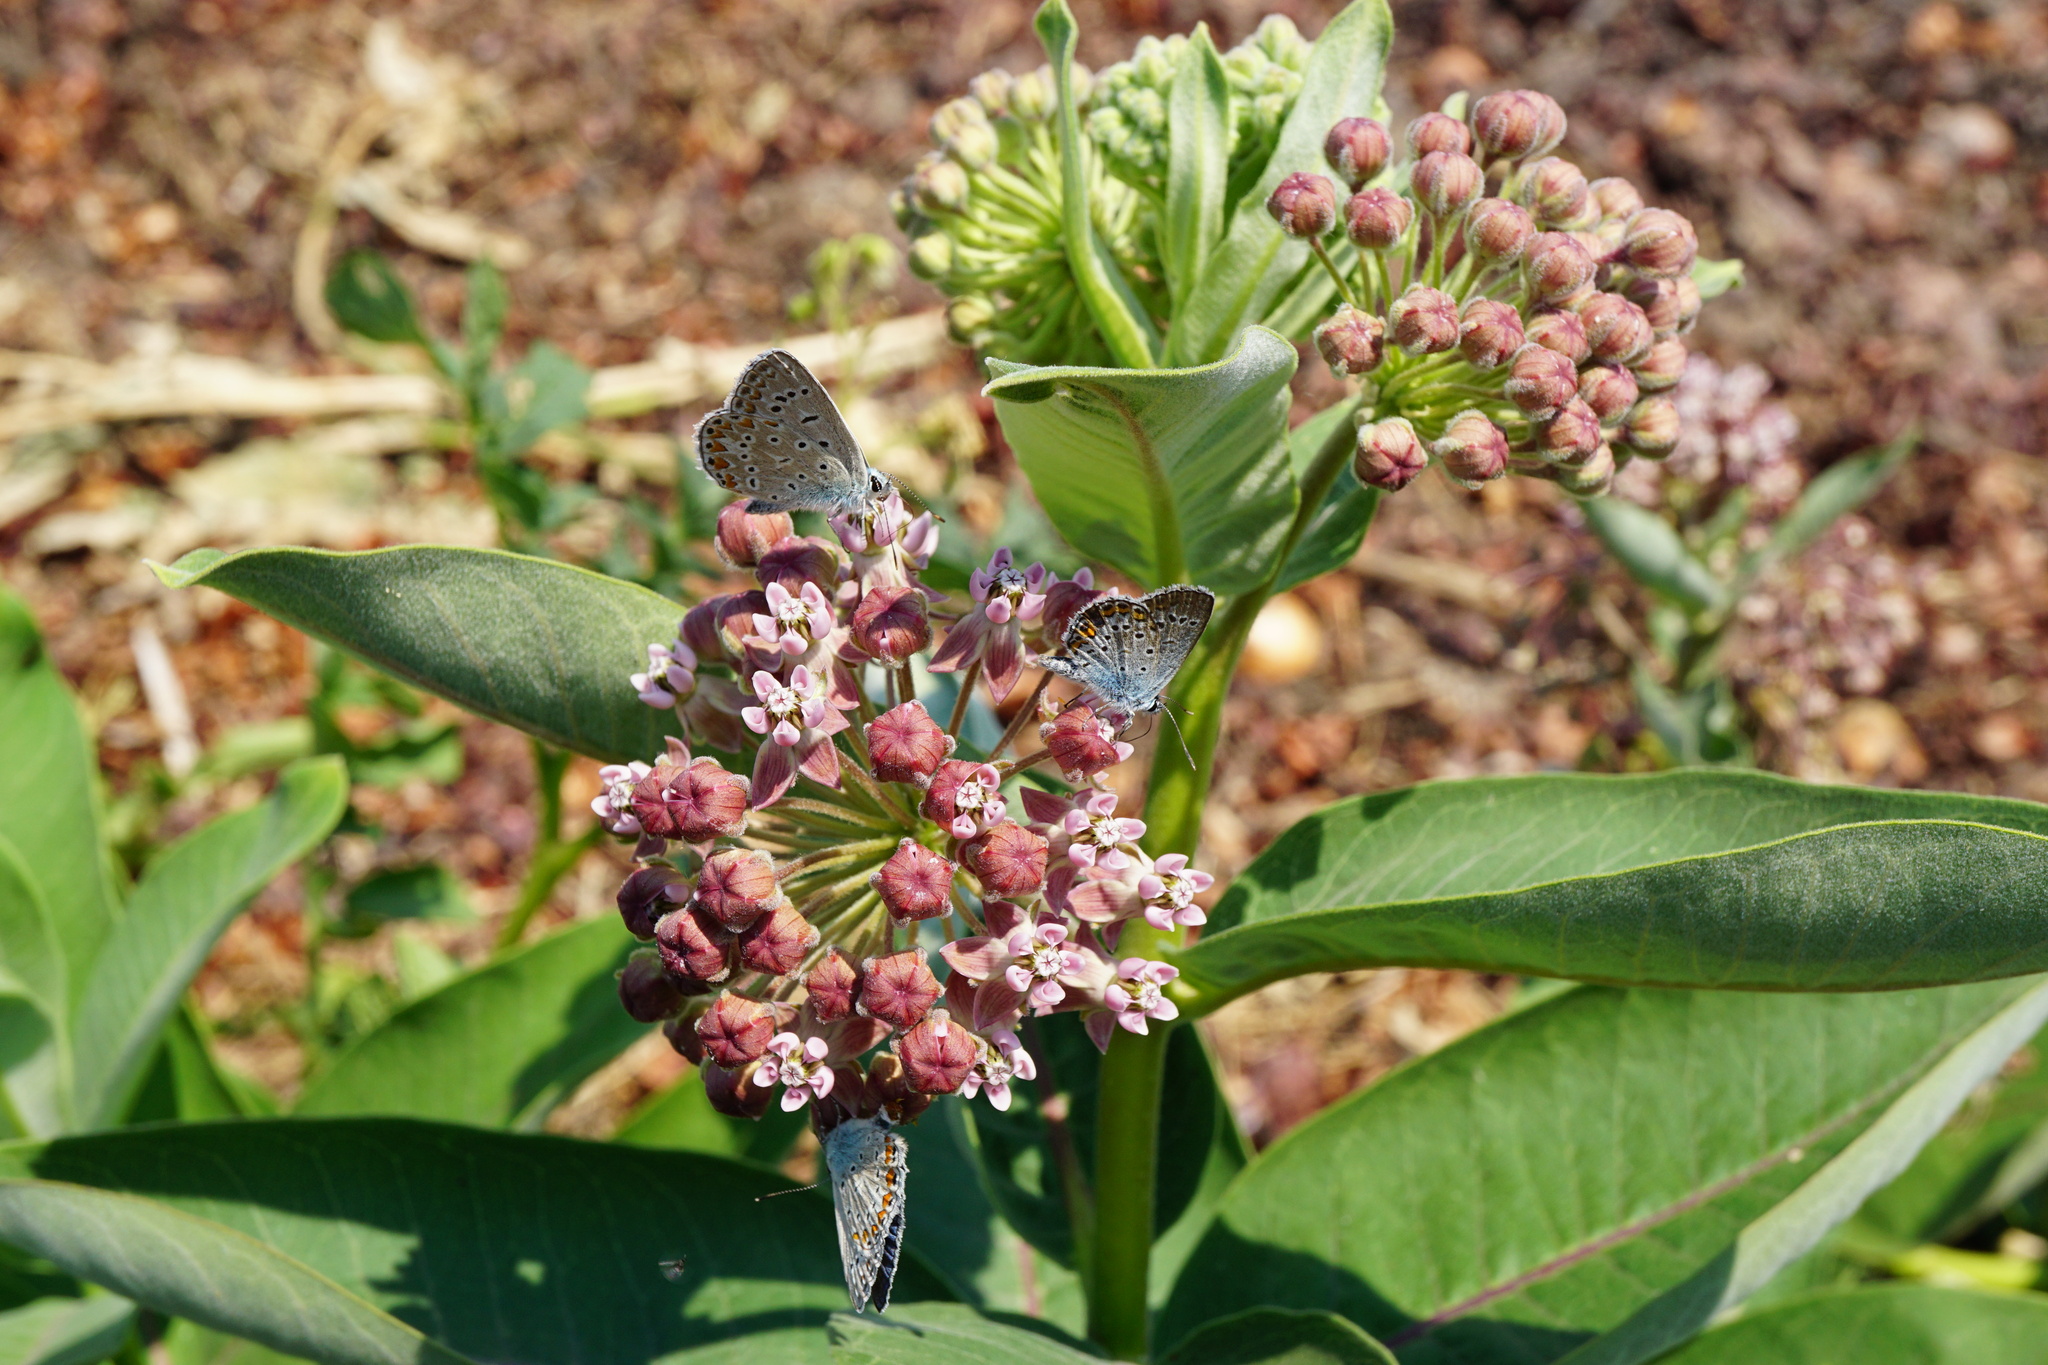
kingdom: Plantae
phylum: Tracheophyta
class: Magnoliopsida
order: Gentianales
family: Apocynaceae
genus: Asclepias
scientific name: Asclepias syriaca
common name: Common milkweed
